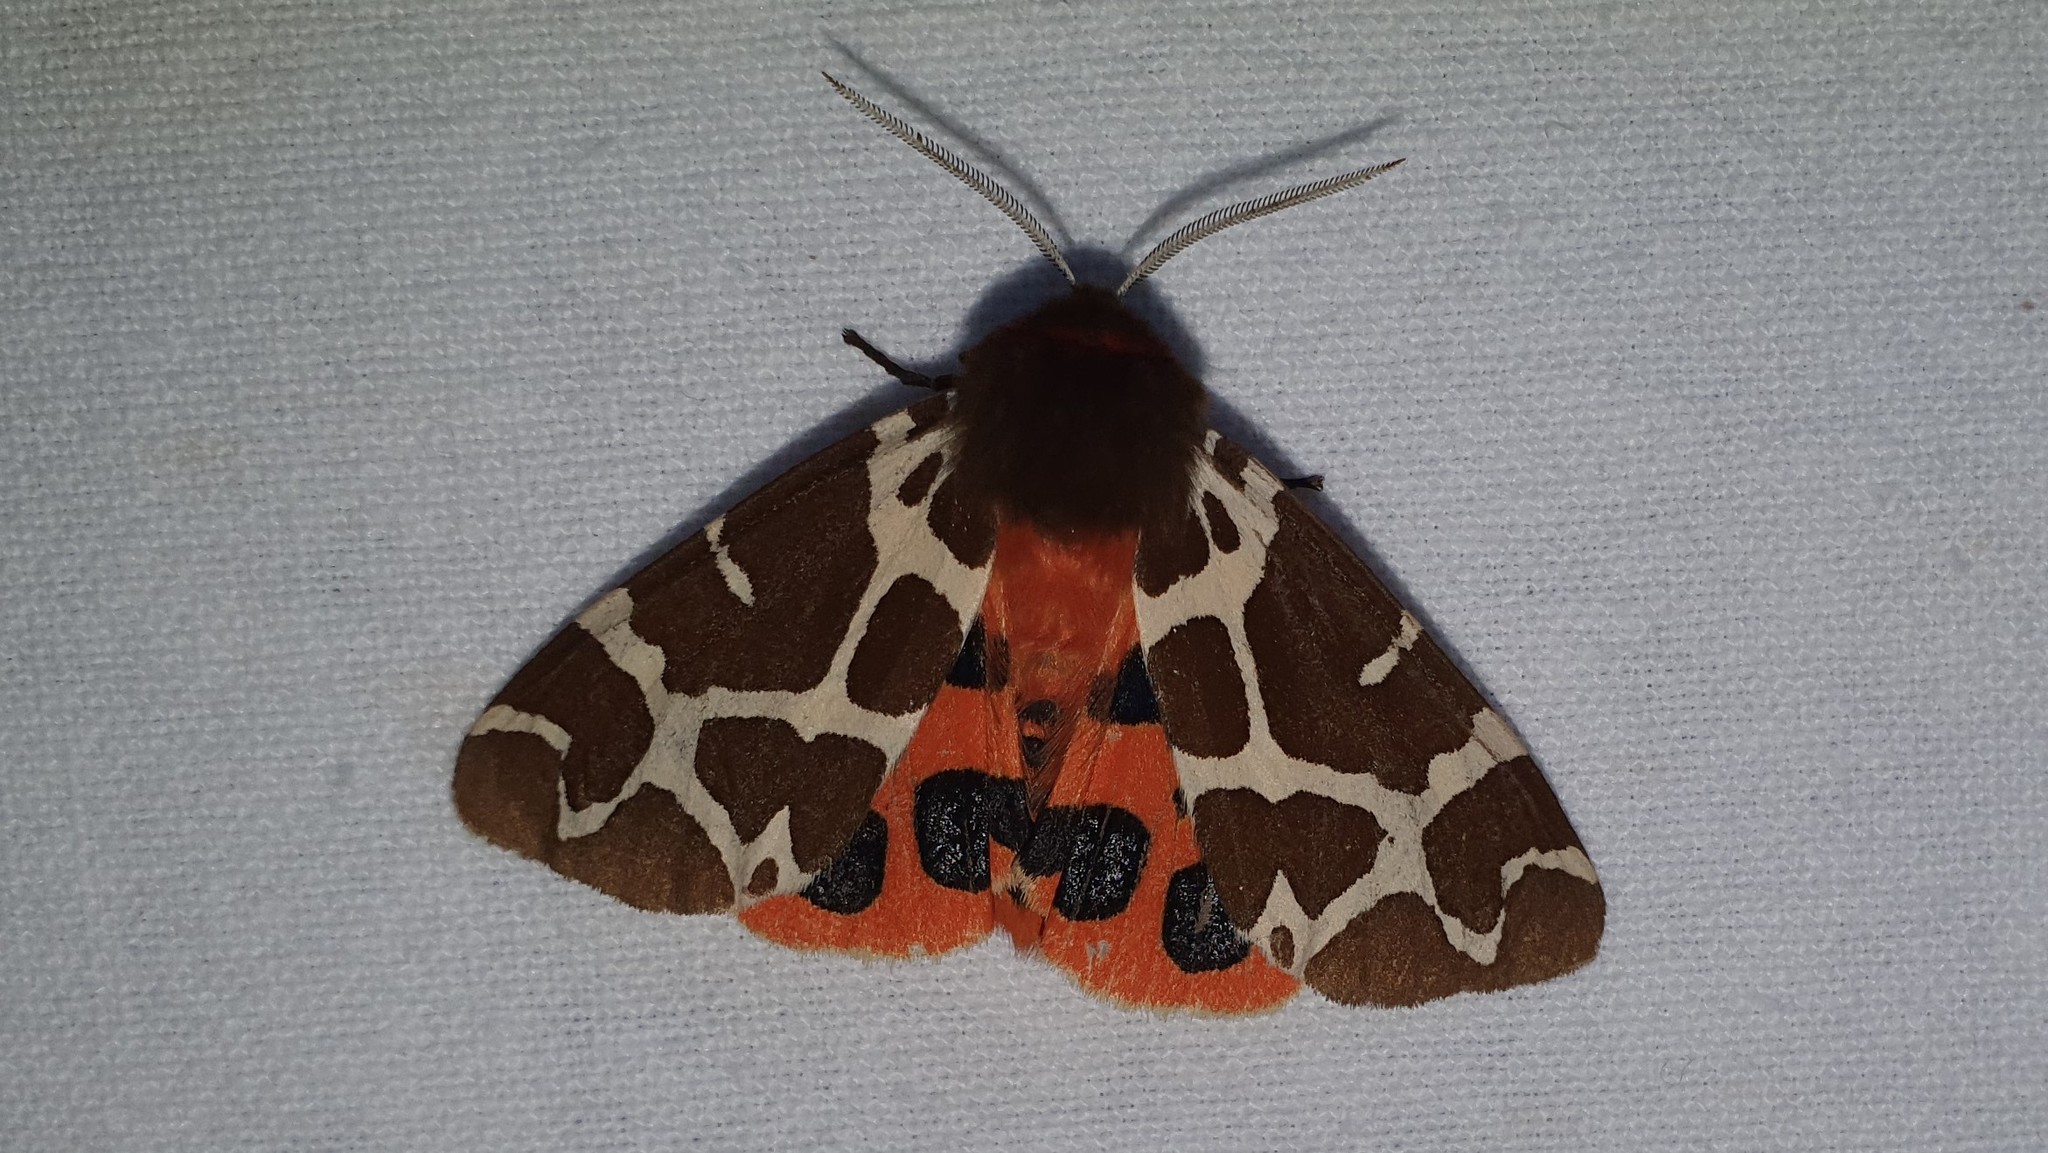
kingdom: Animalia
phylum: Arthropoda
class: Insecta
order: Lepidoptera
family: Erebidae
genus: Arctia
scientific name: Arctia caja
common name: Garden tiger
